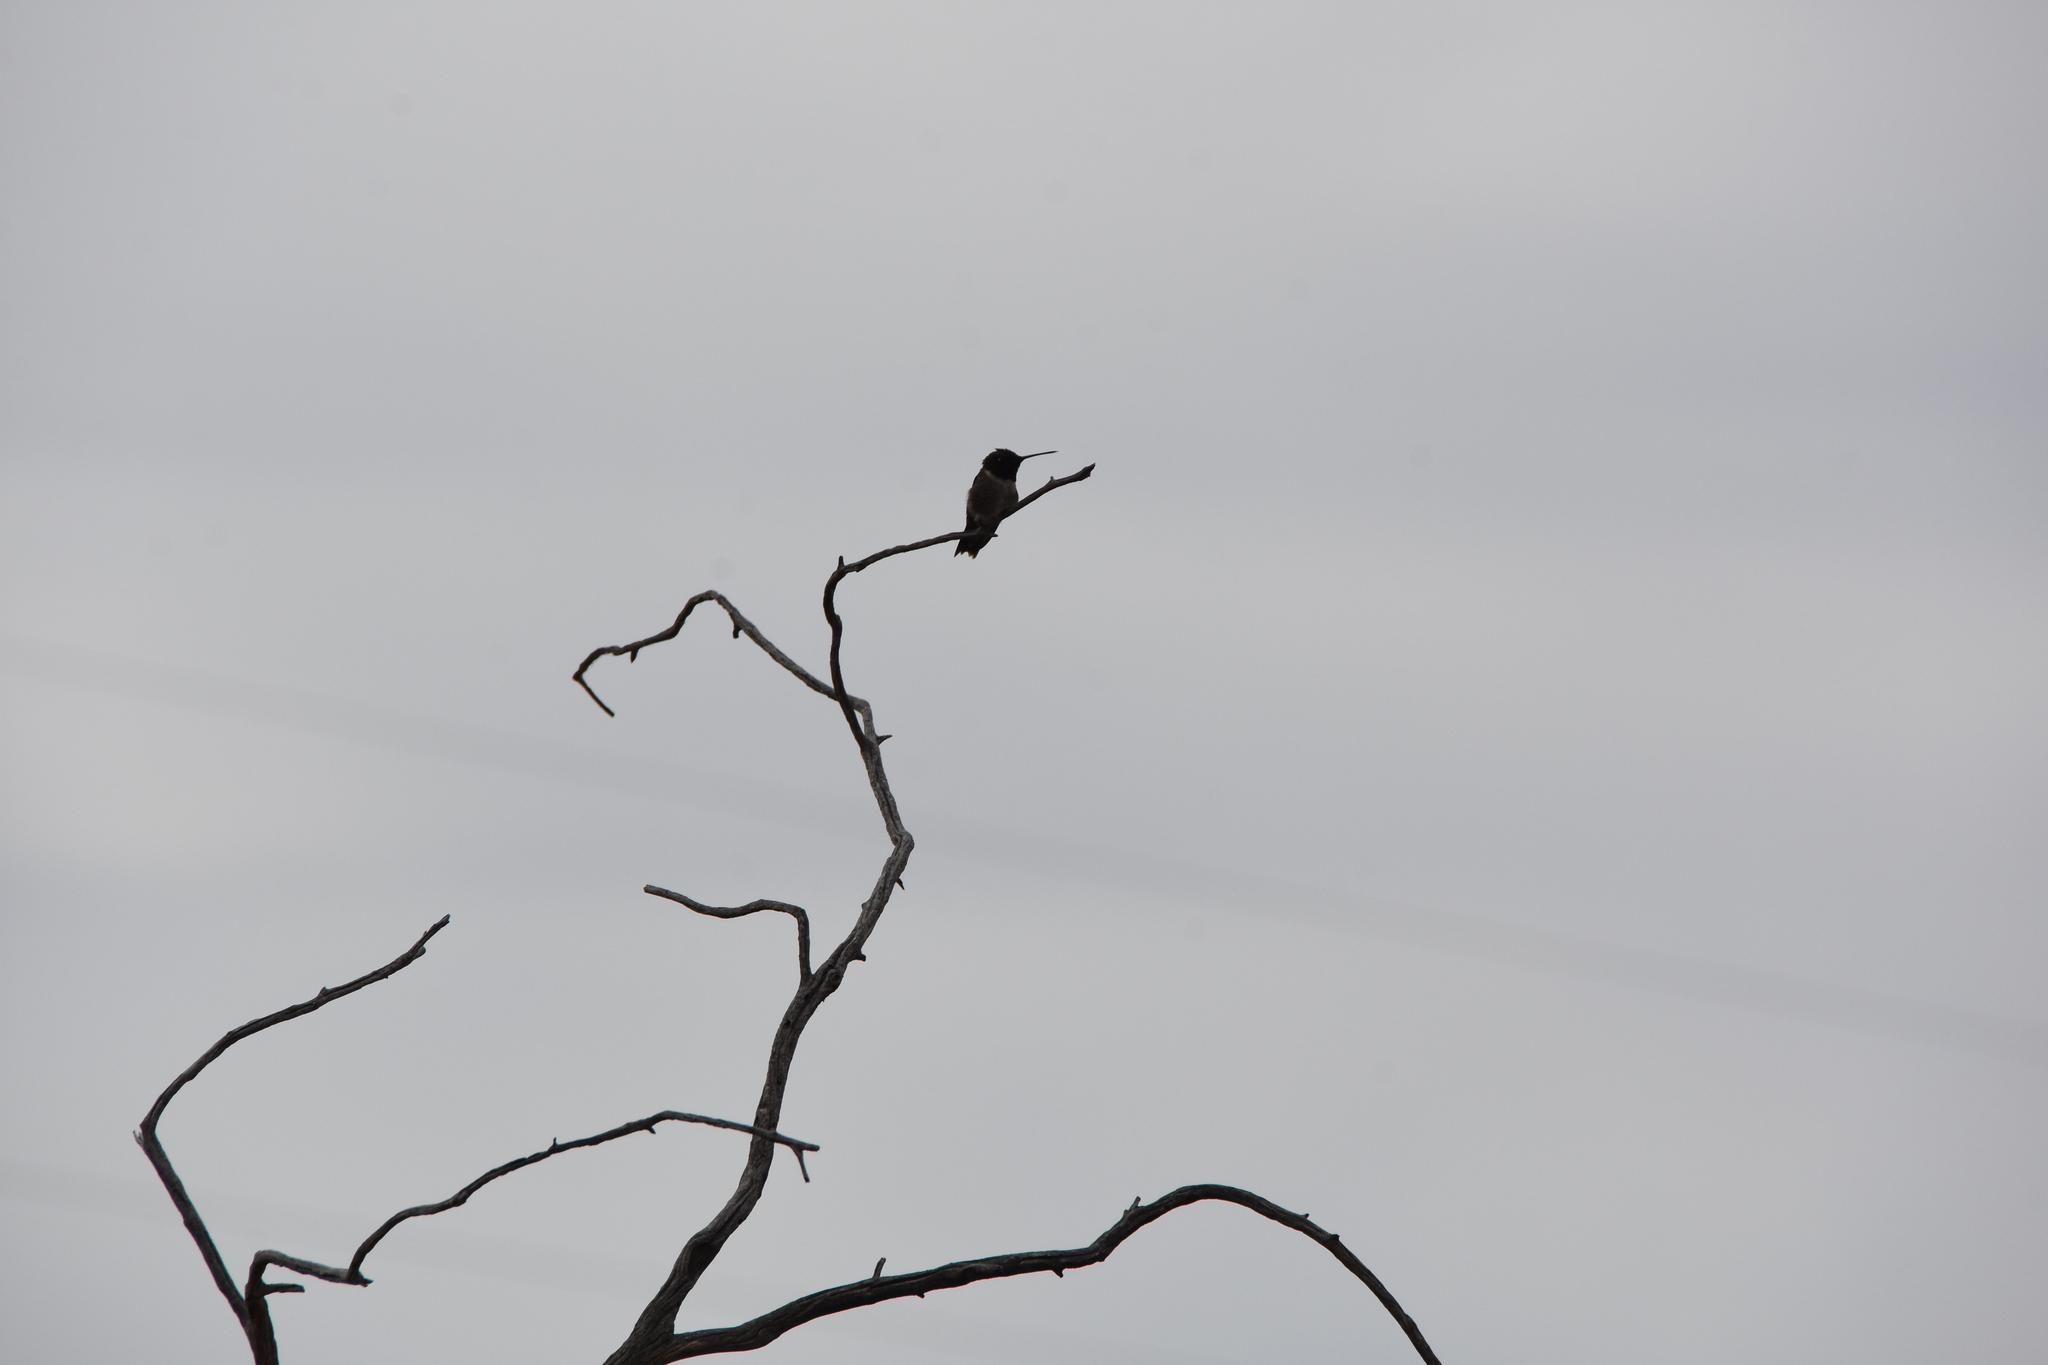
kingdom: Animalia
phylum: Chordata
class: Aves
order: Apodiformes
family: Trochilidae
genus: Archilochus
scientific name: Archilochus alexandri
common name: Black-chinned hummingbird
